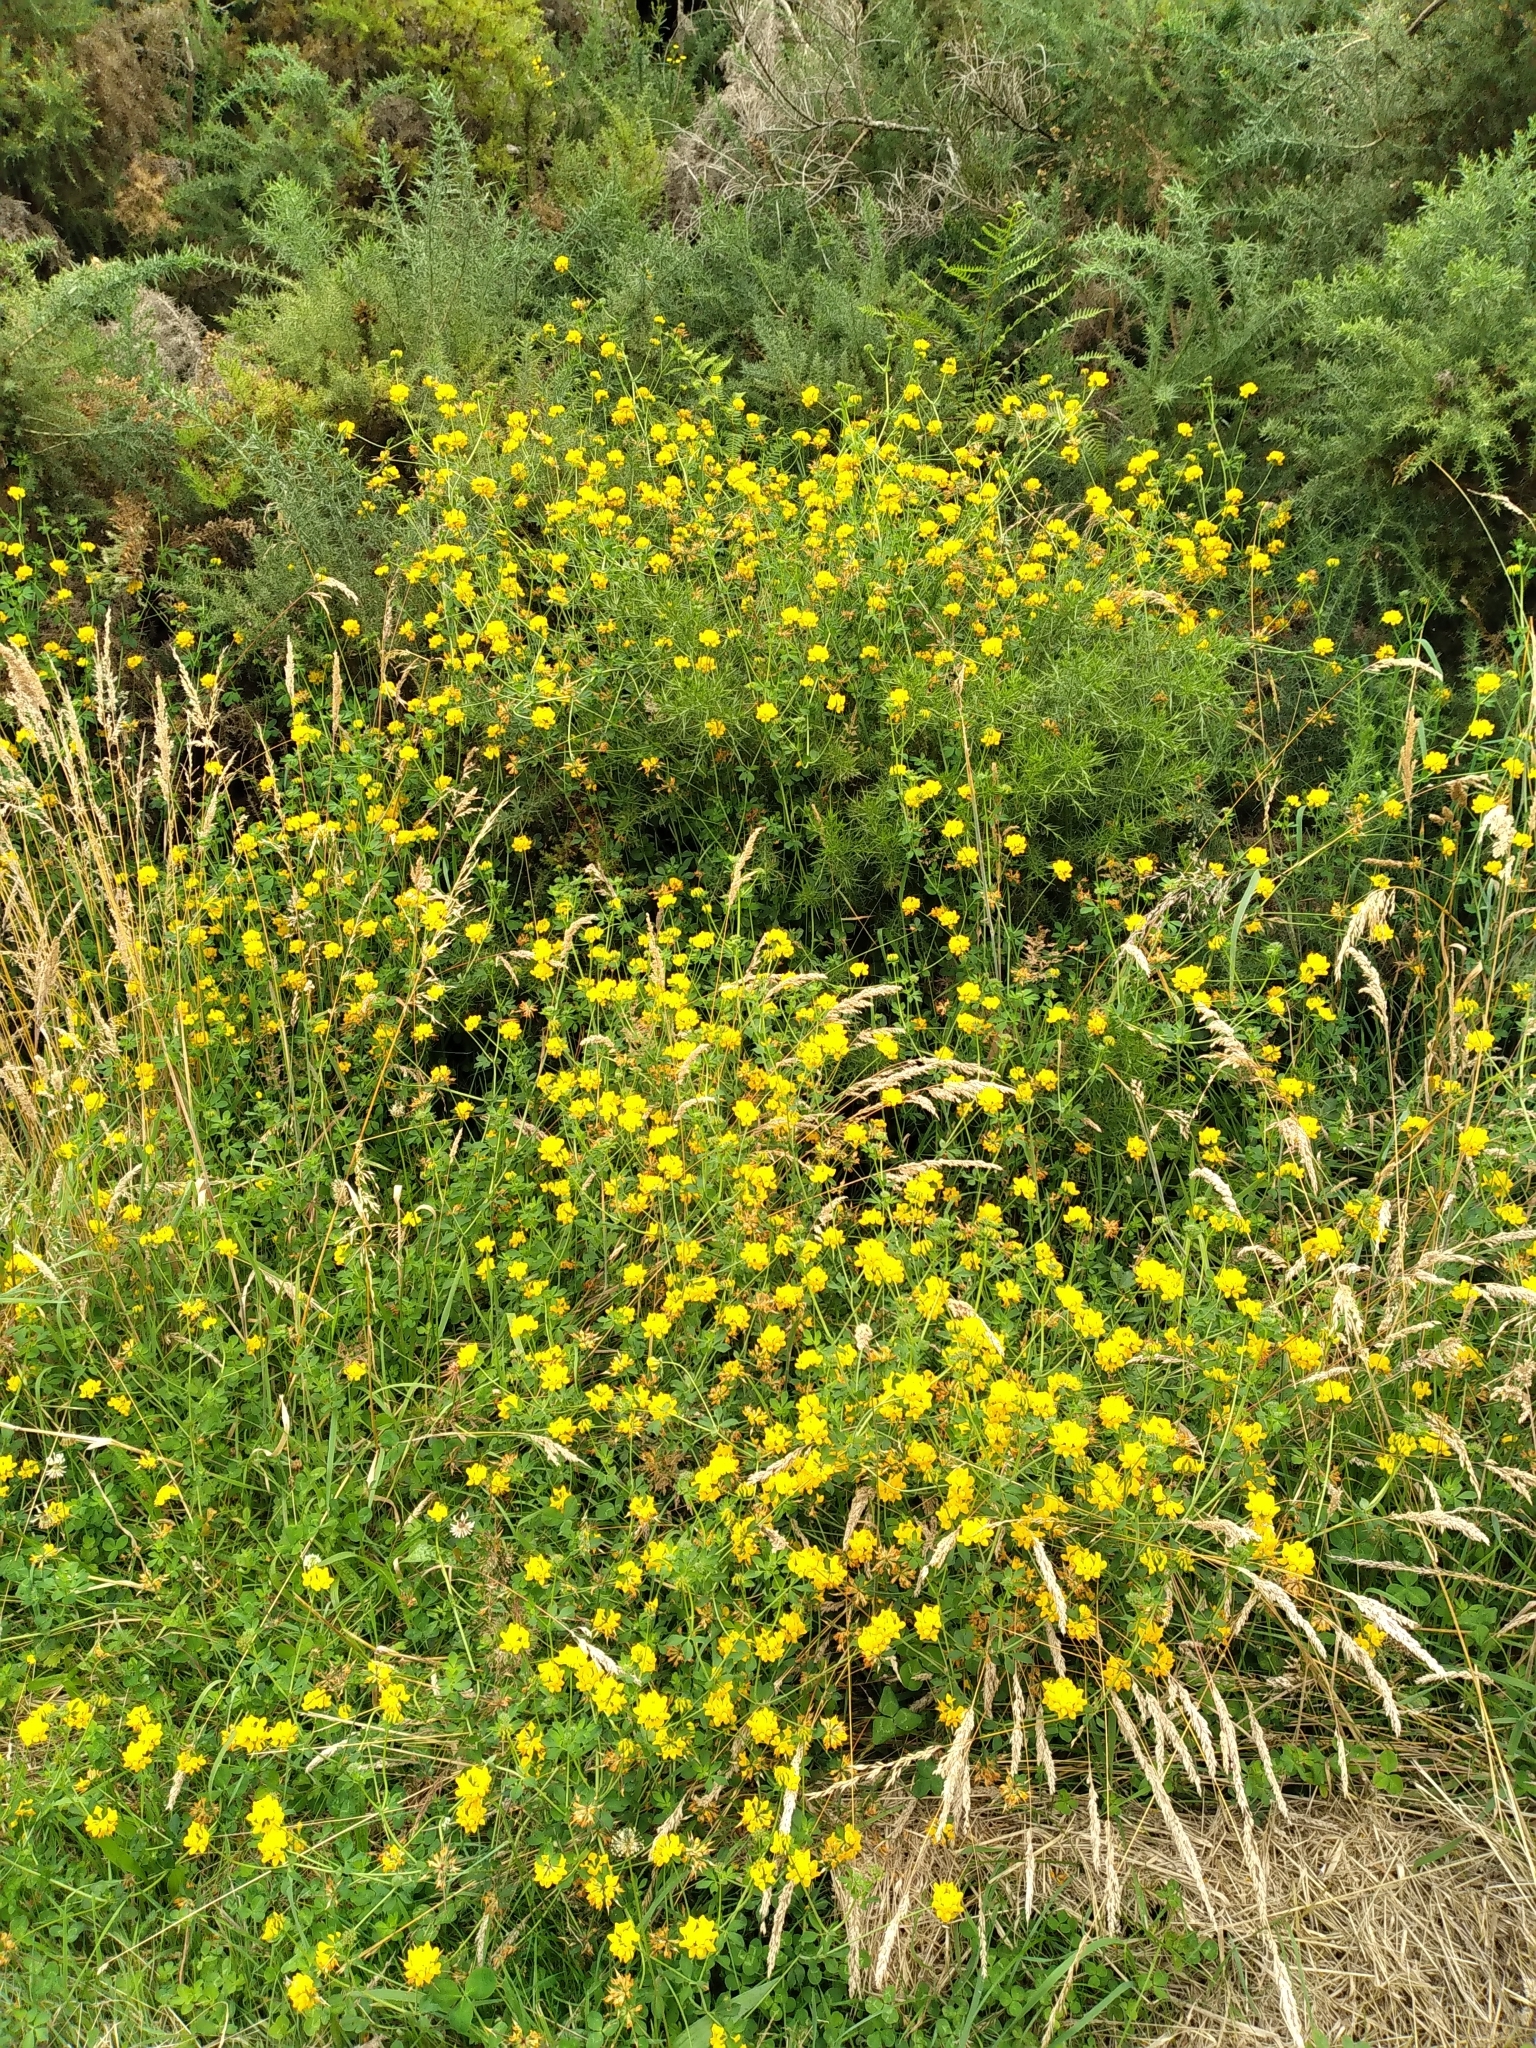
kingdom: Plantae
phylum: Tracheophyta
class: Magnoliopsida
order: Fabales
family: Fabaceae
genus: Lotus
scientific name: Lotus pedunculatus
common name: Greater birdsfoot-trefoil
